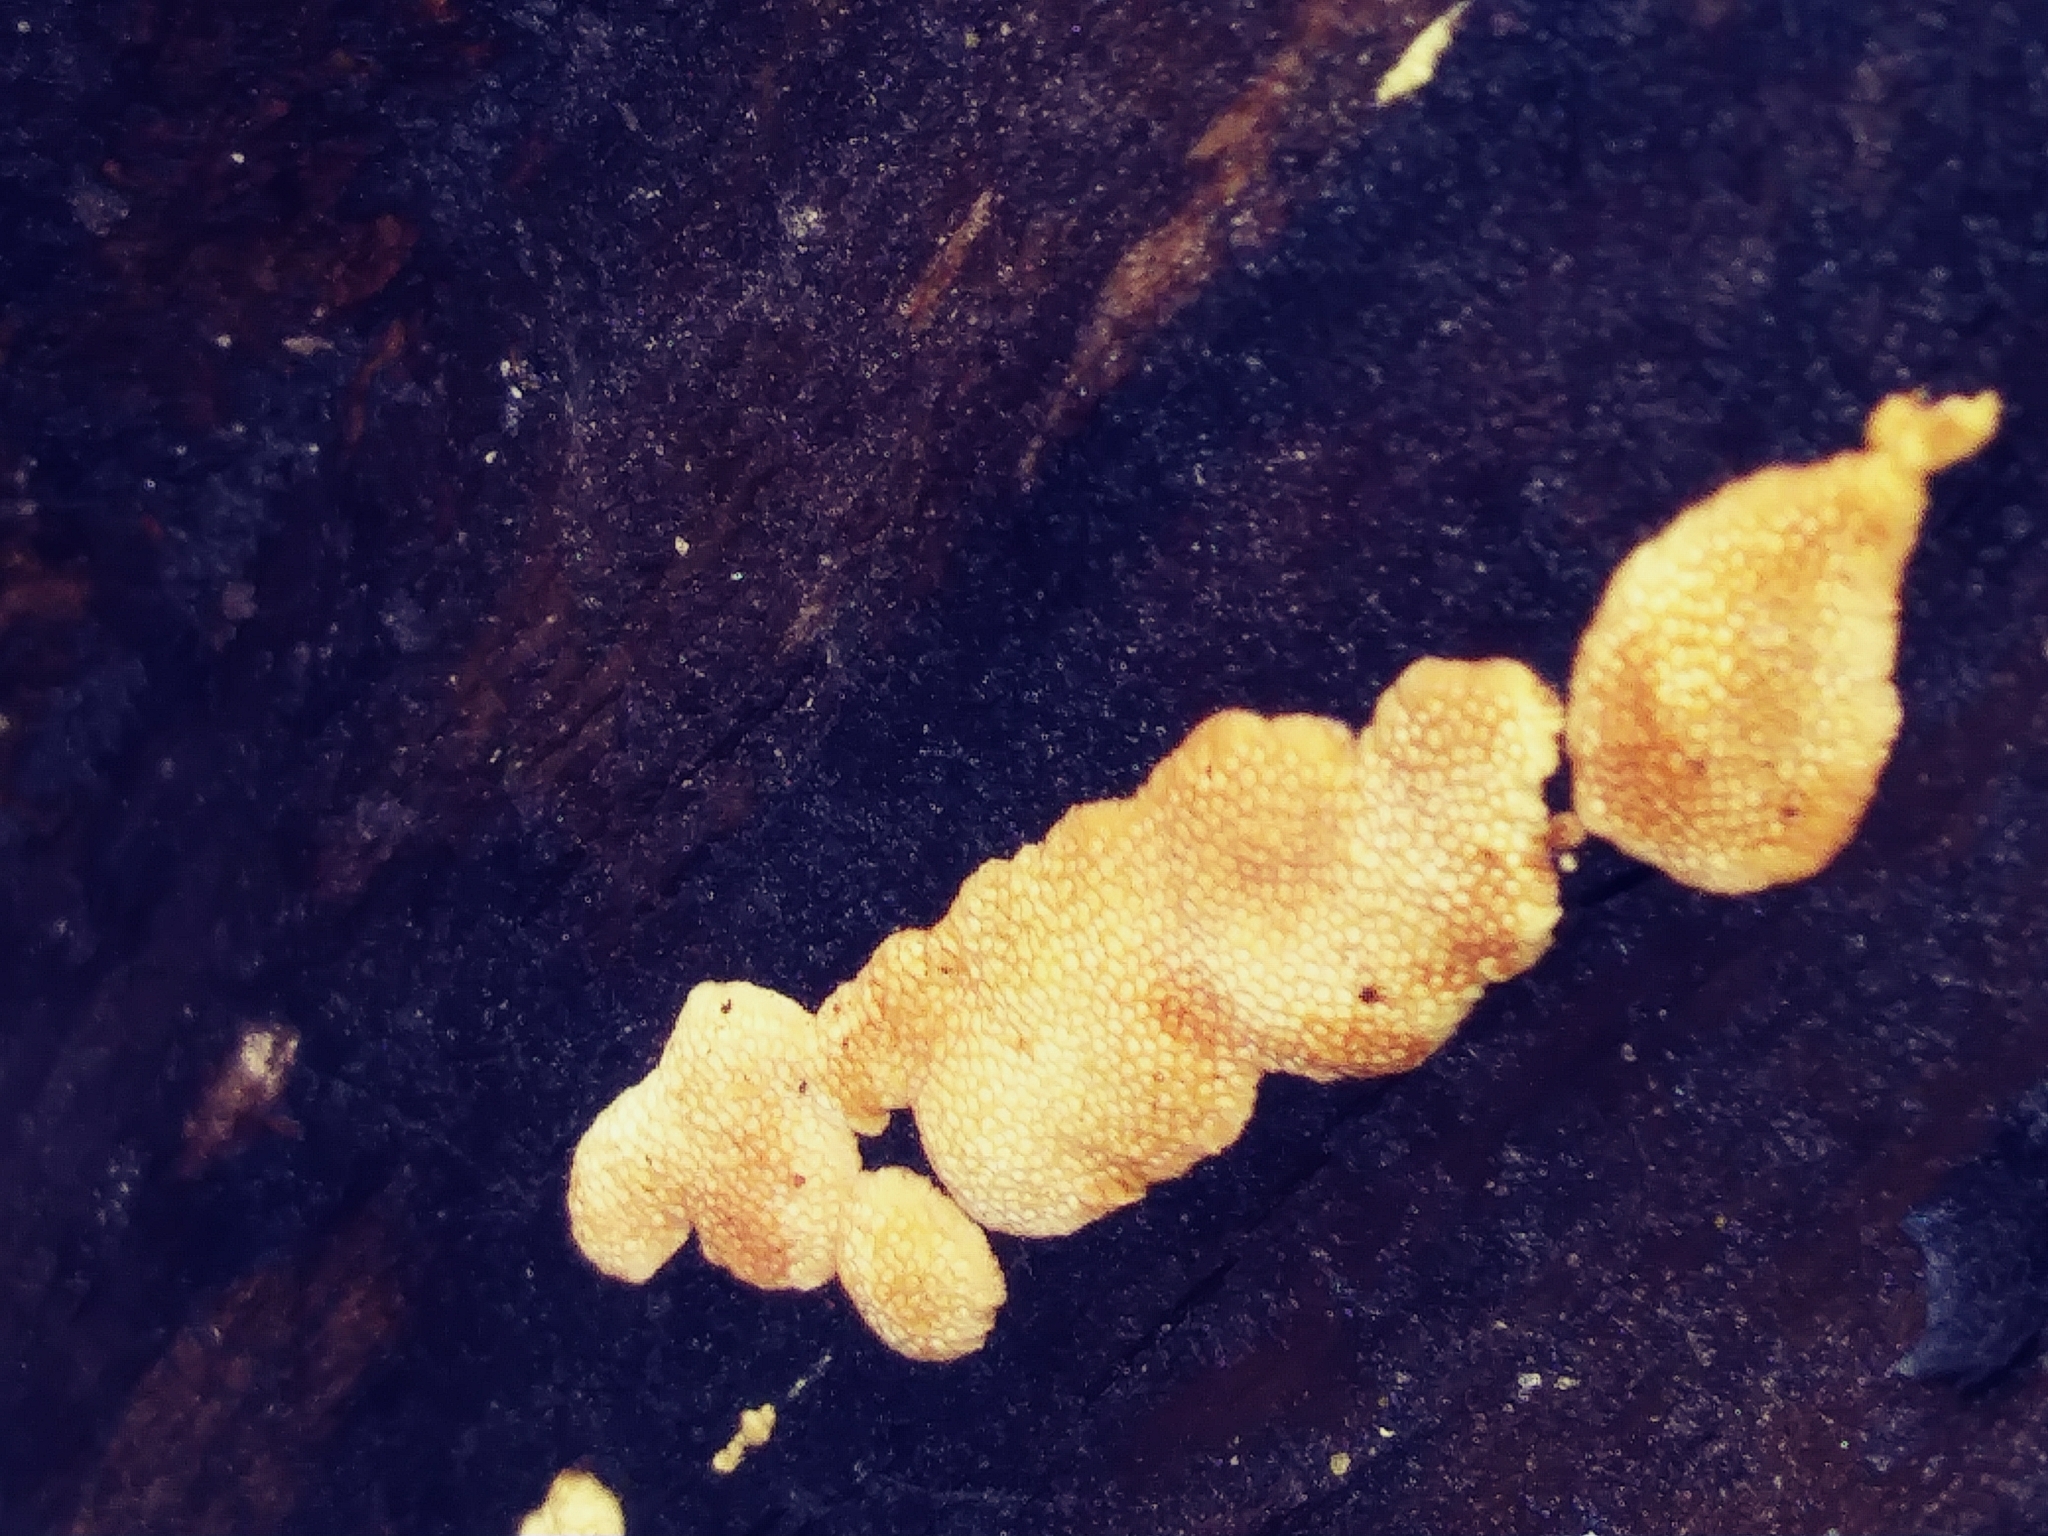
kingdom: Fungi
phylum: Basidiomycota
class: Agaricomycetes
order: Polyporales
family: Steccherinaceae
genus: Steccherinum
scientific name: Steccherinum ochraceum
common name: Ochre spreading tooth
